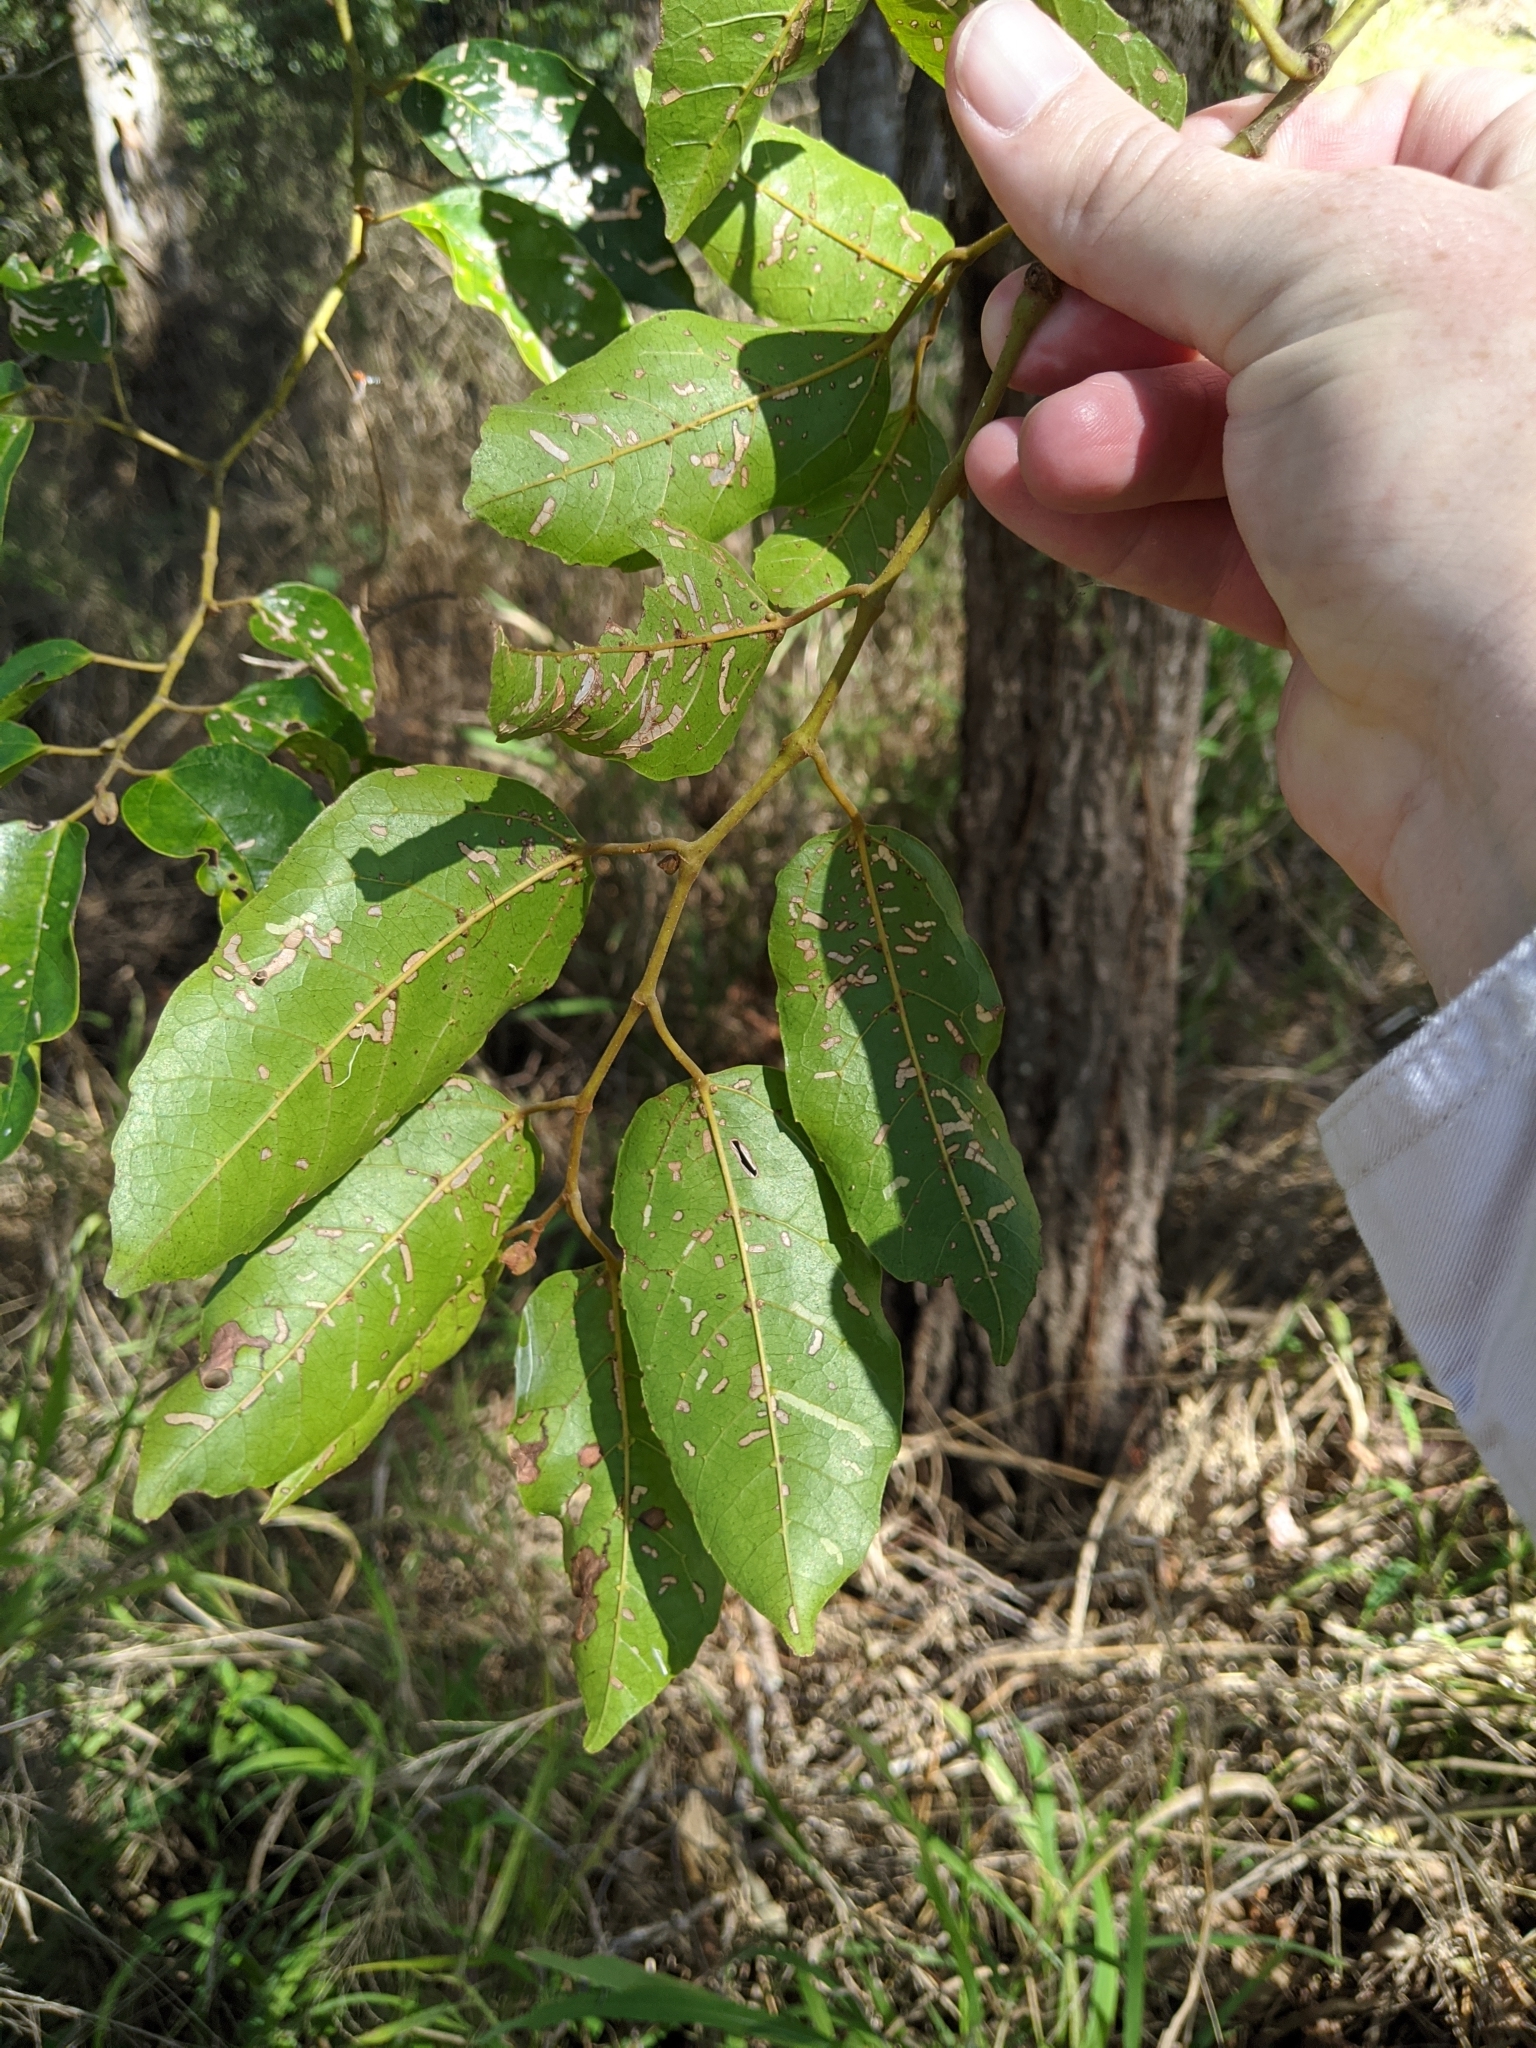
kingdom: Plantae
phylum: Tracheophyta
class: Magnoliopsida
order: Vitales
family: Vitaceae
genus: Cissus
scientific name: Cissus antarctica
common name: Kangaroo vine
